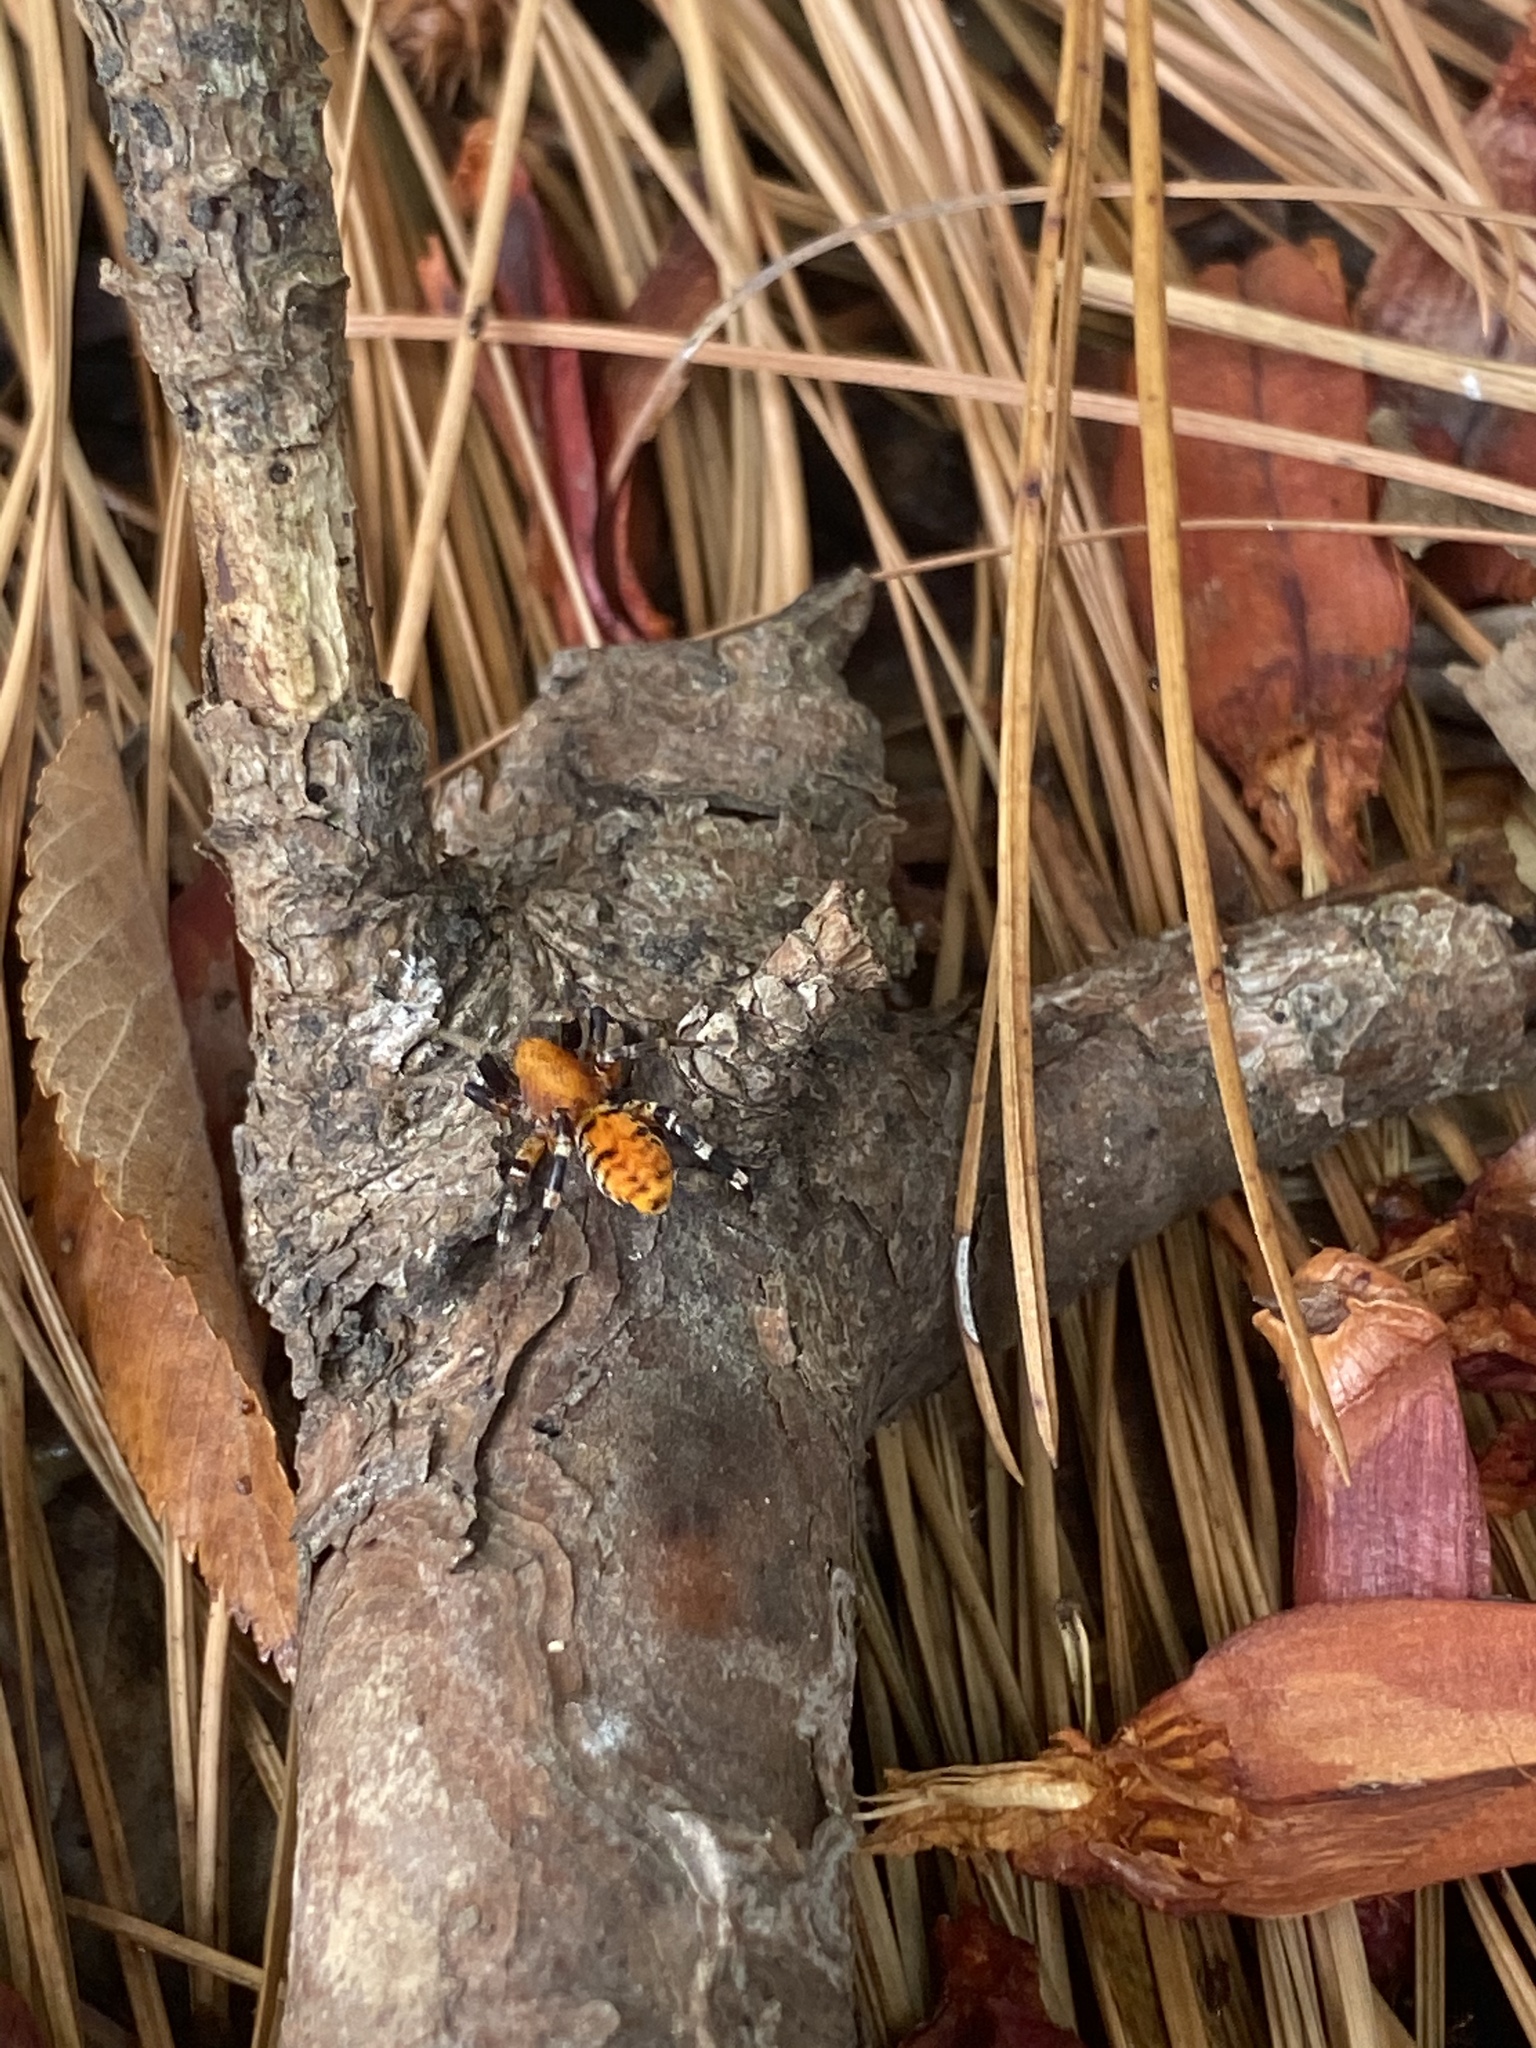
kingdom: Animalia
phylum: Arthropoda
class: Arachnida
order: Araneae
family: Corinnidae
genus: Castianeira
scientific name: Castianeira amoena
